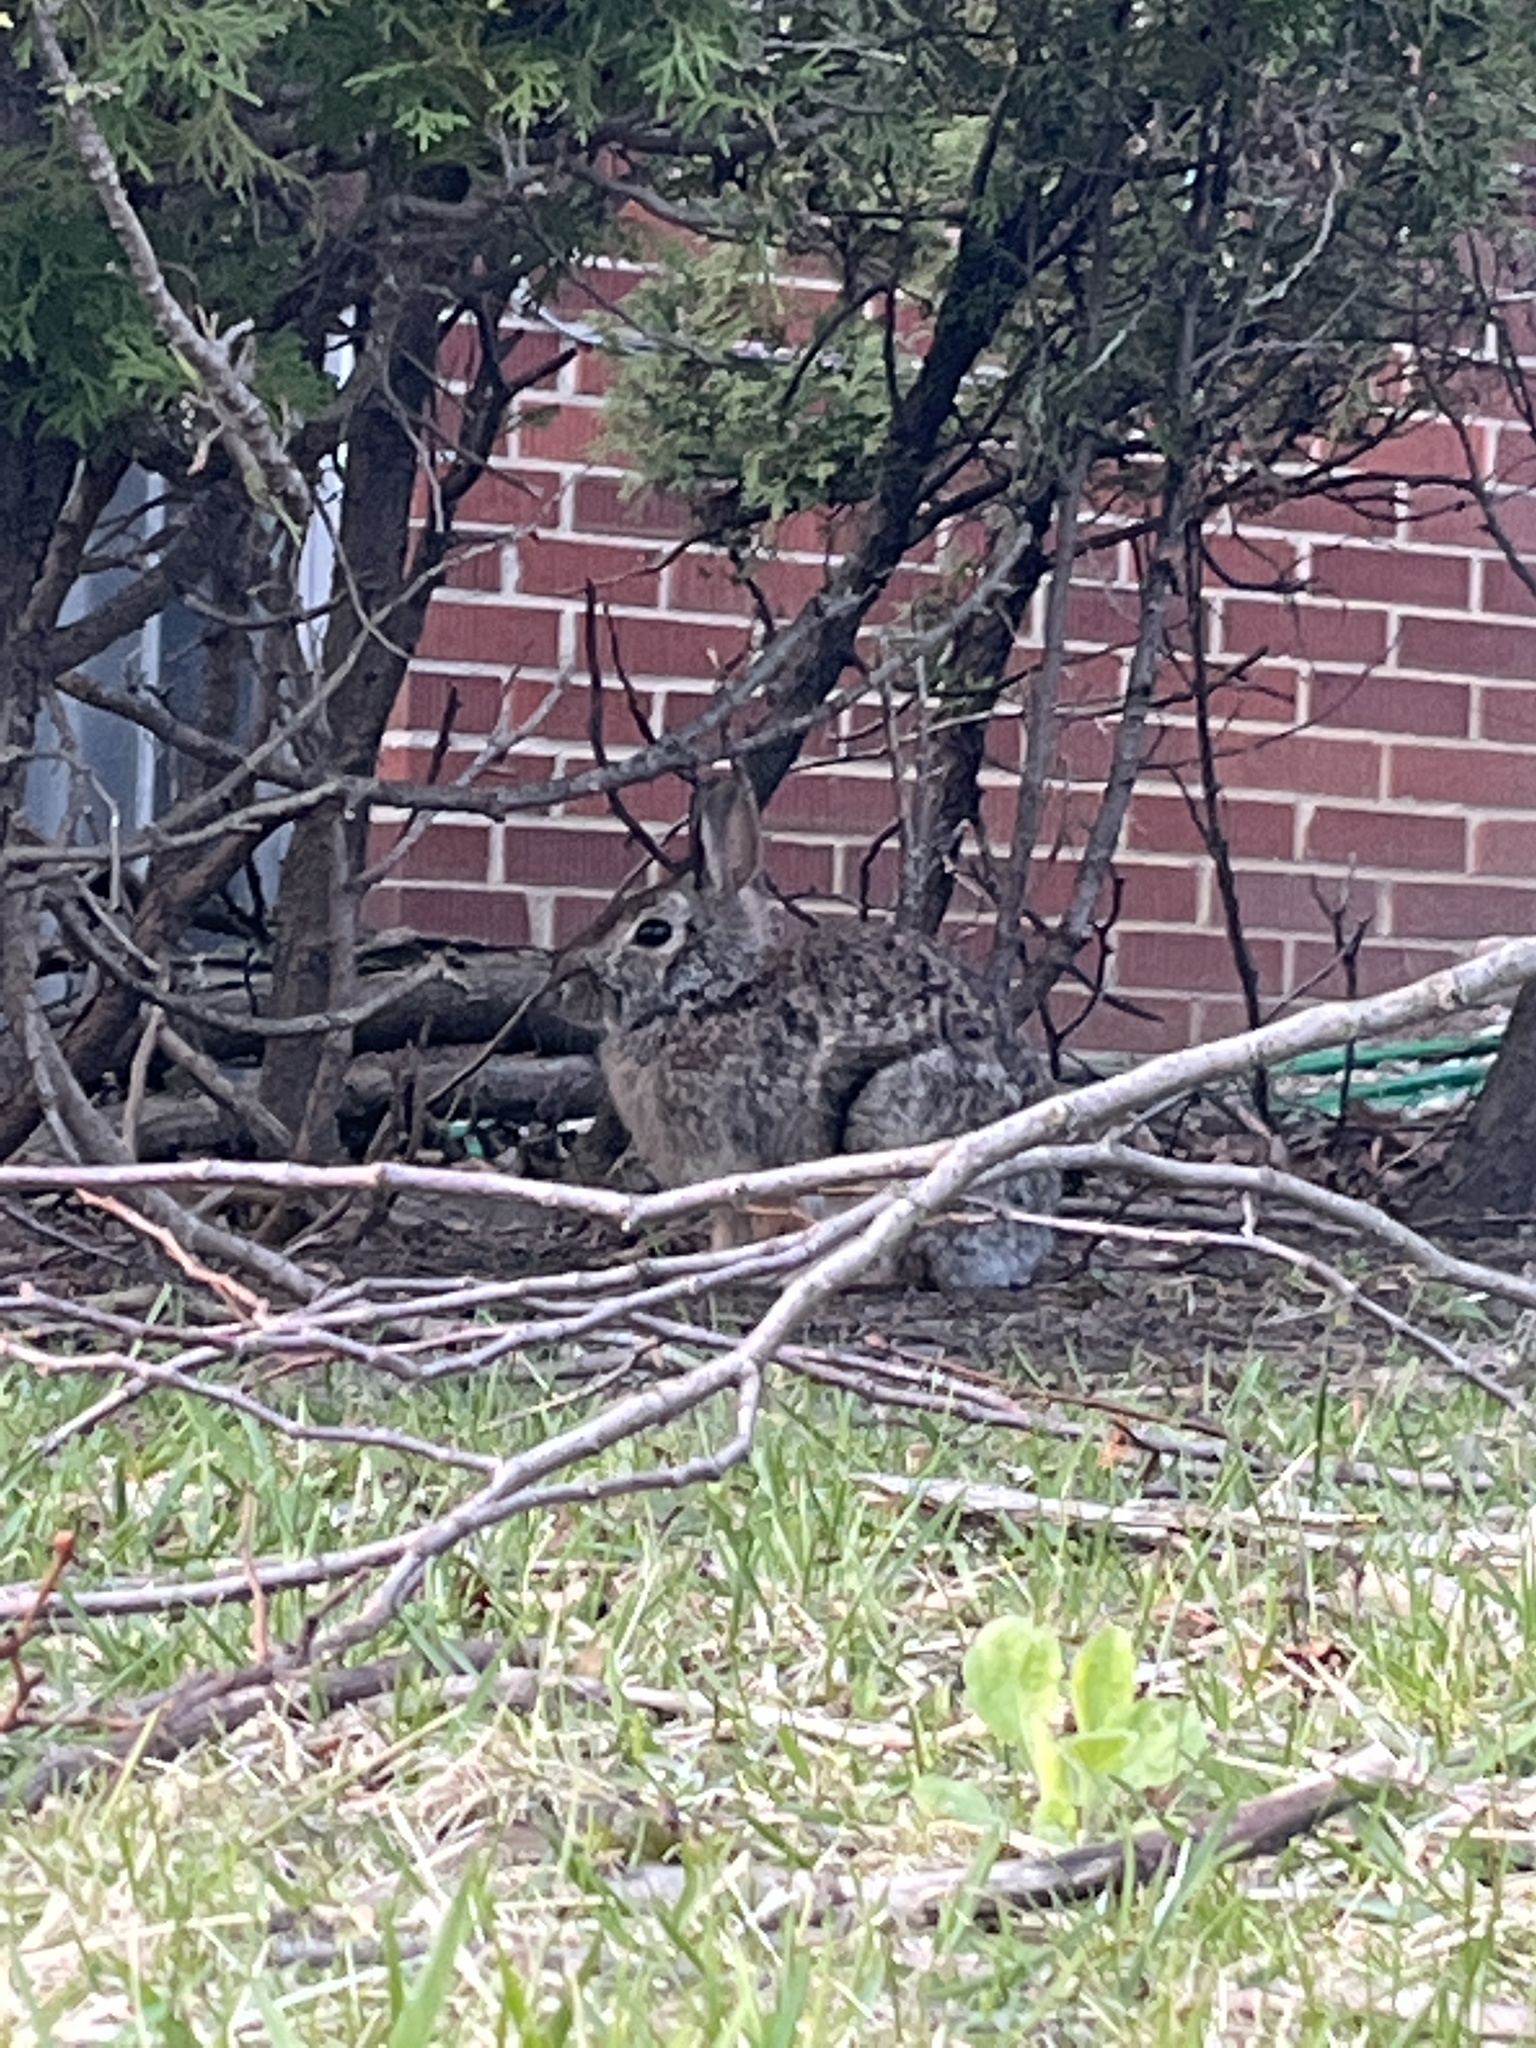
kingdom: Animalia
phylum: Chordata
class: Mammalia
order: Lagomorpha
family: Leporidae
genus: Sylvilagus
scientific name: Sylvilagus floridanus
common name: Eastern cottontail
